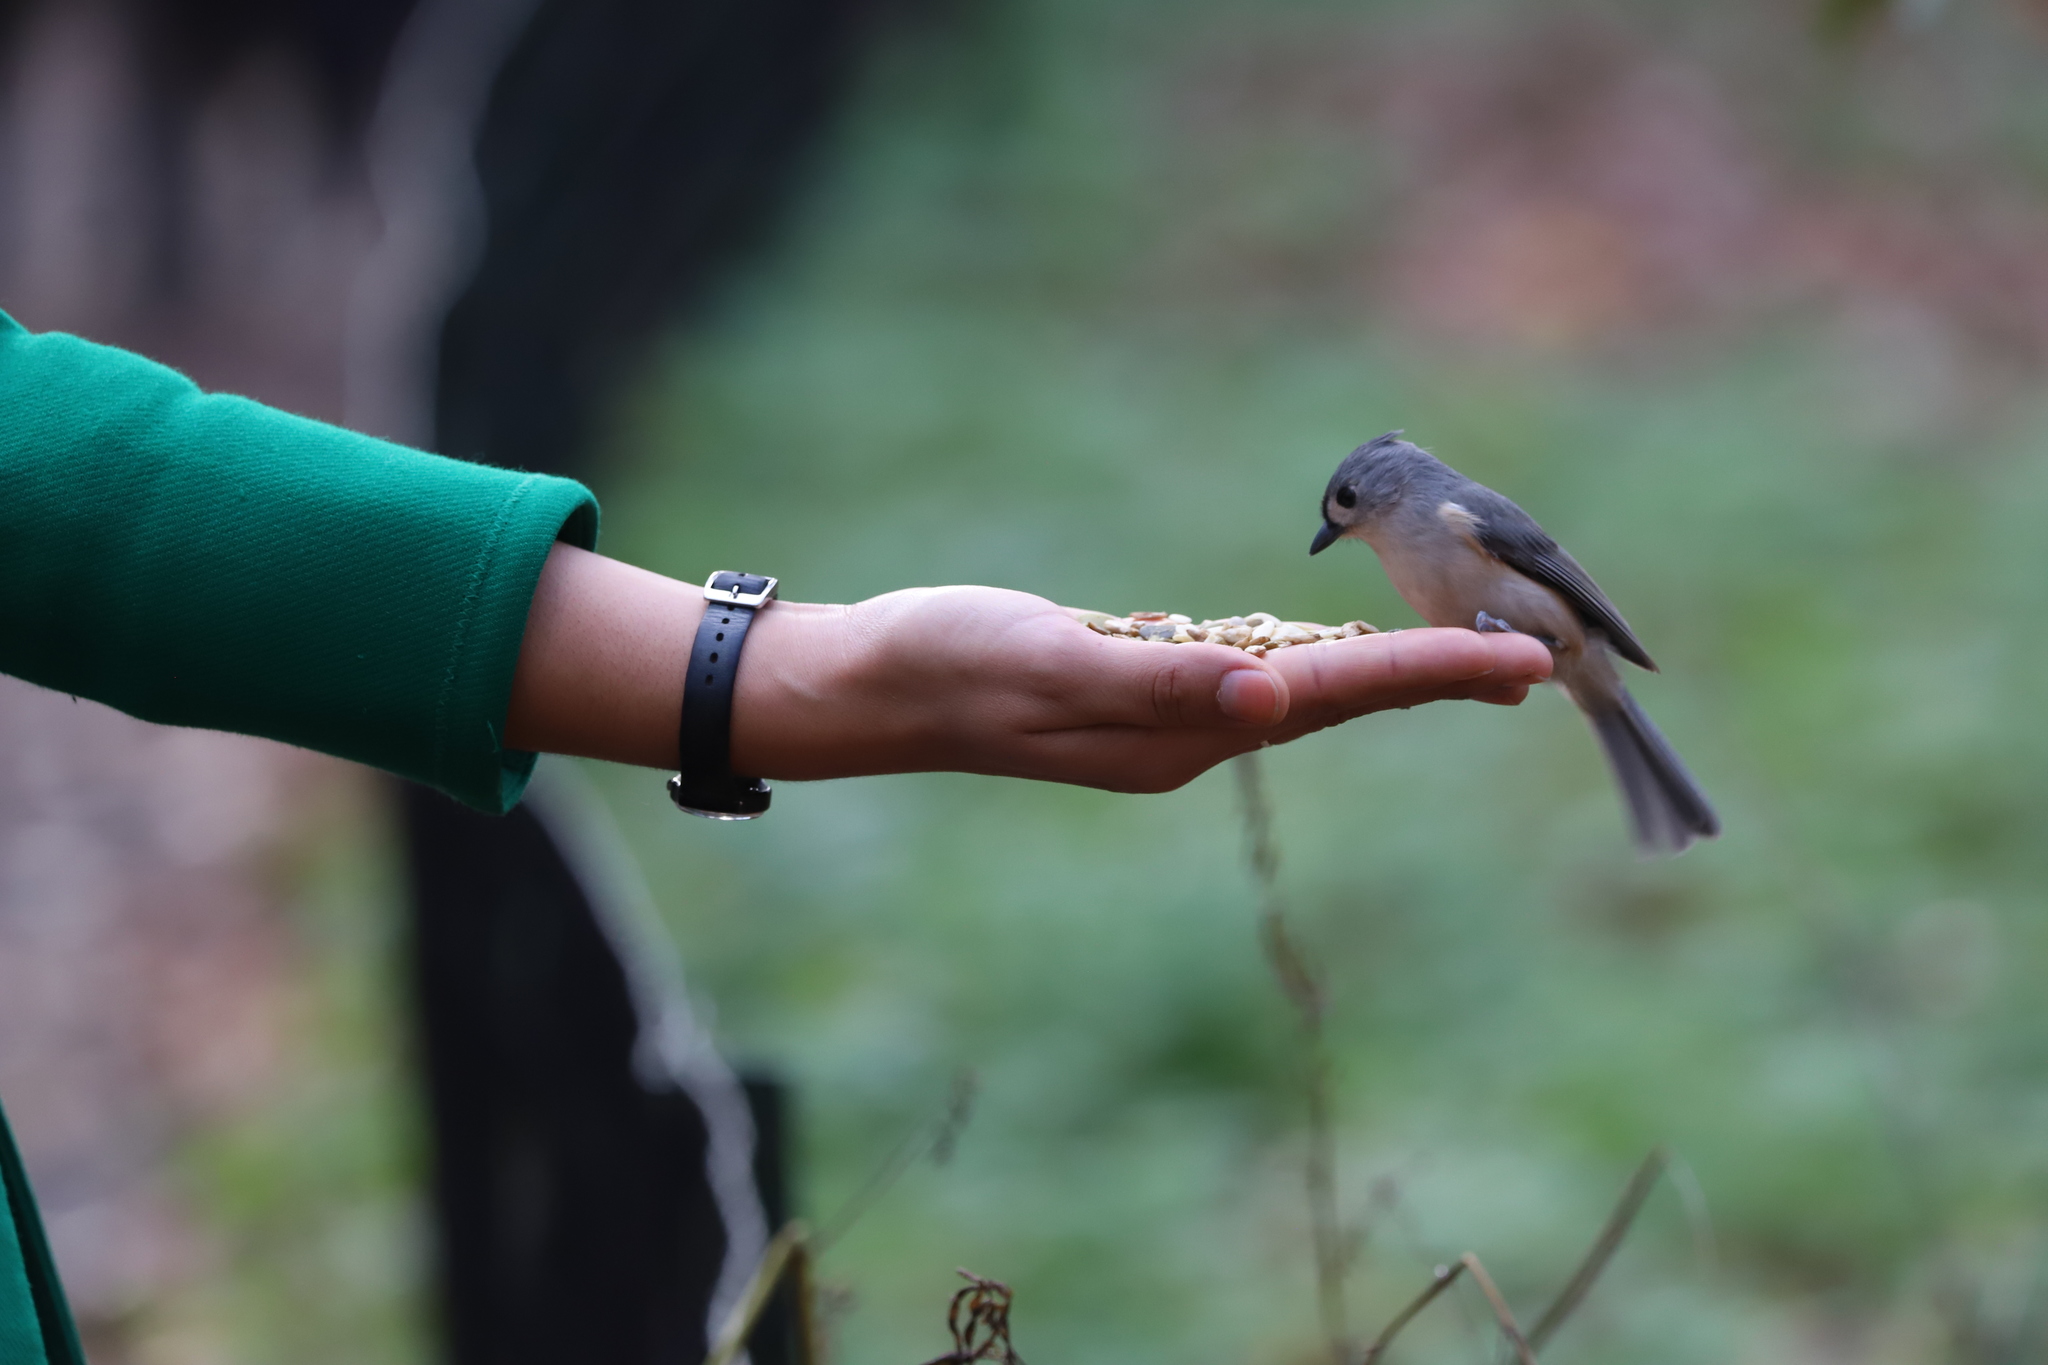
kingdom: Animalia
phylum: Chordata
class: Aves
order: Passeriformes
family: Paridae
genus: Baeolophus
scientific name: Baeolophus bicolor
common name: Tufted titmouse
